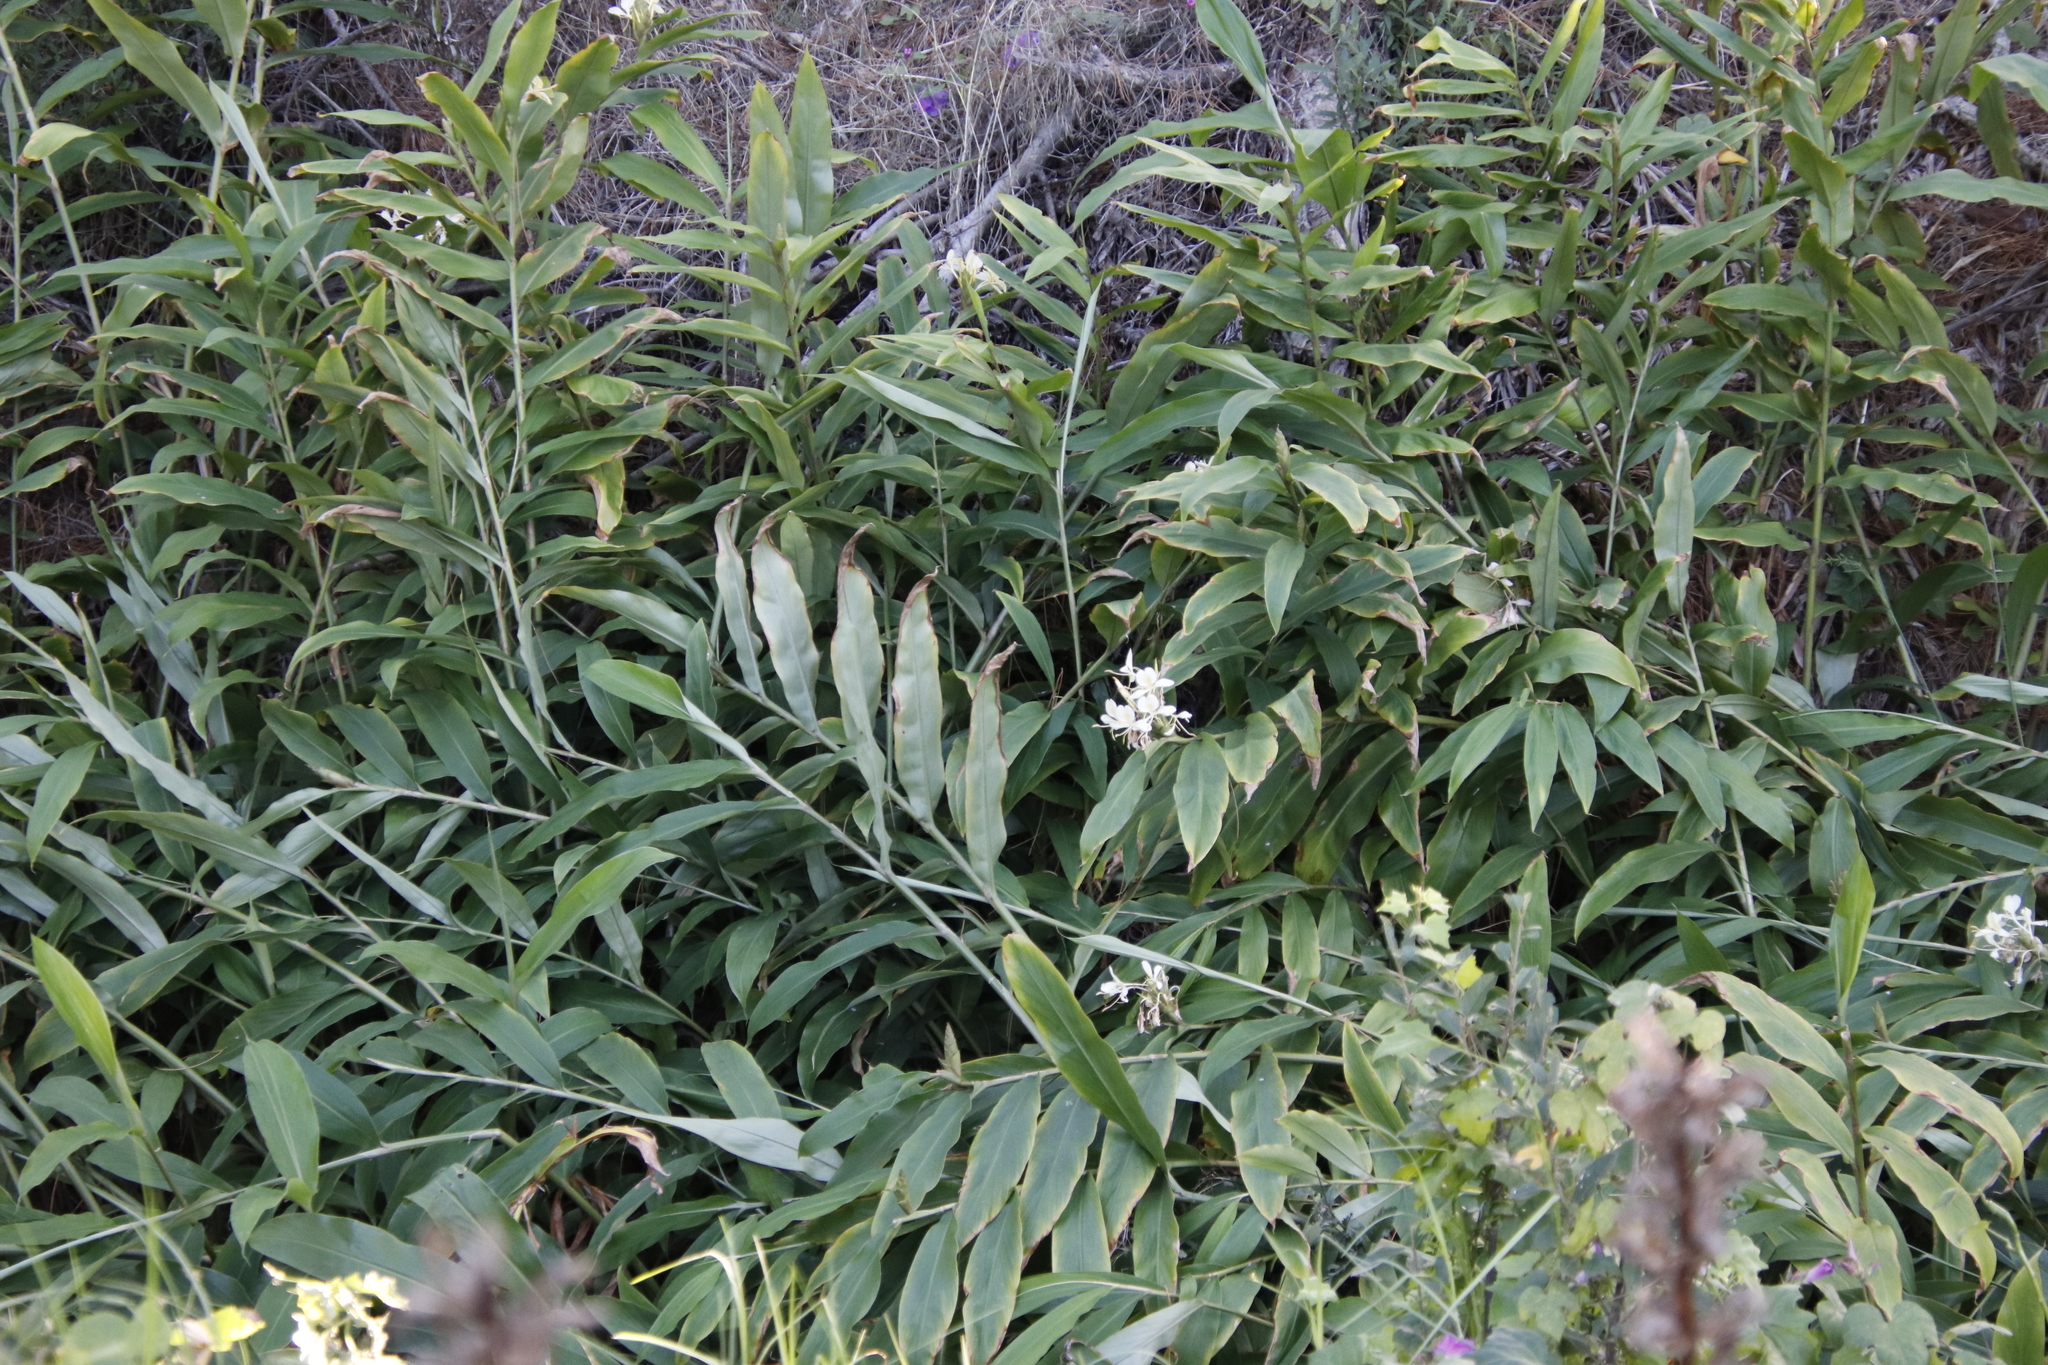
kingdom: Plantae
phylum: Tracheophyta
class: Liliopsida
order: Zingiberales
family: Zingiberaceae
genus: Hedychium
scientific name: Hedychium coronarium
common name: White garland-lily
